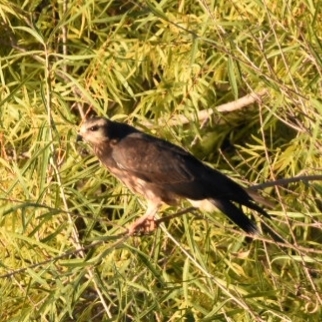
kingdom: Animalia
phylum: Chordata
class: Aves
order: Accipitriformes
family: Accipitridae
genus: Rostrhamus
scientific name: Rostrhamus sociabilis
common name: Snail kite
